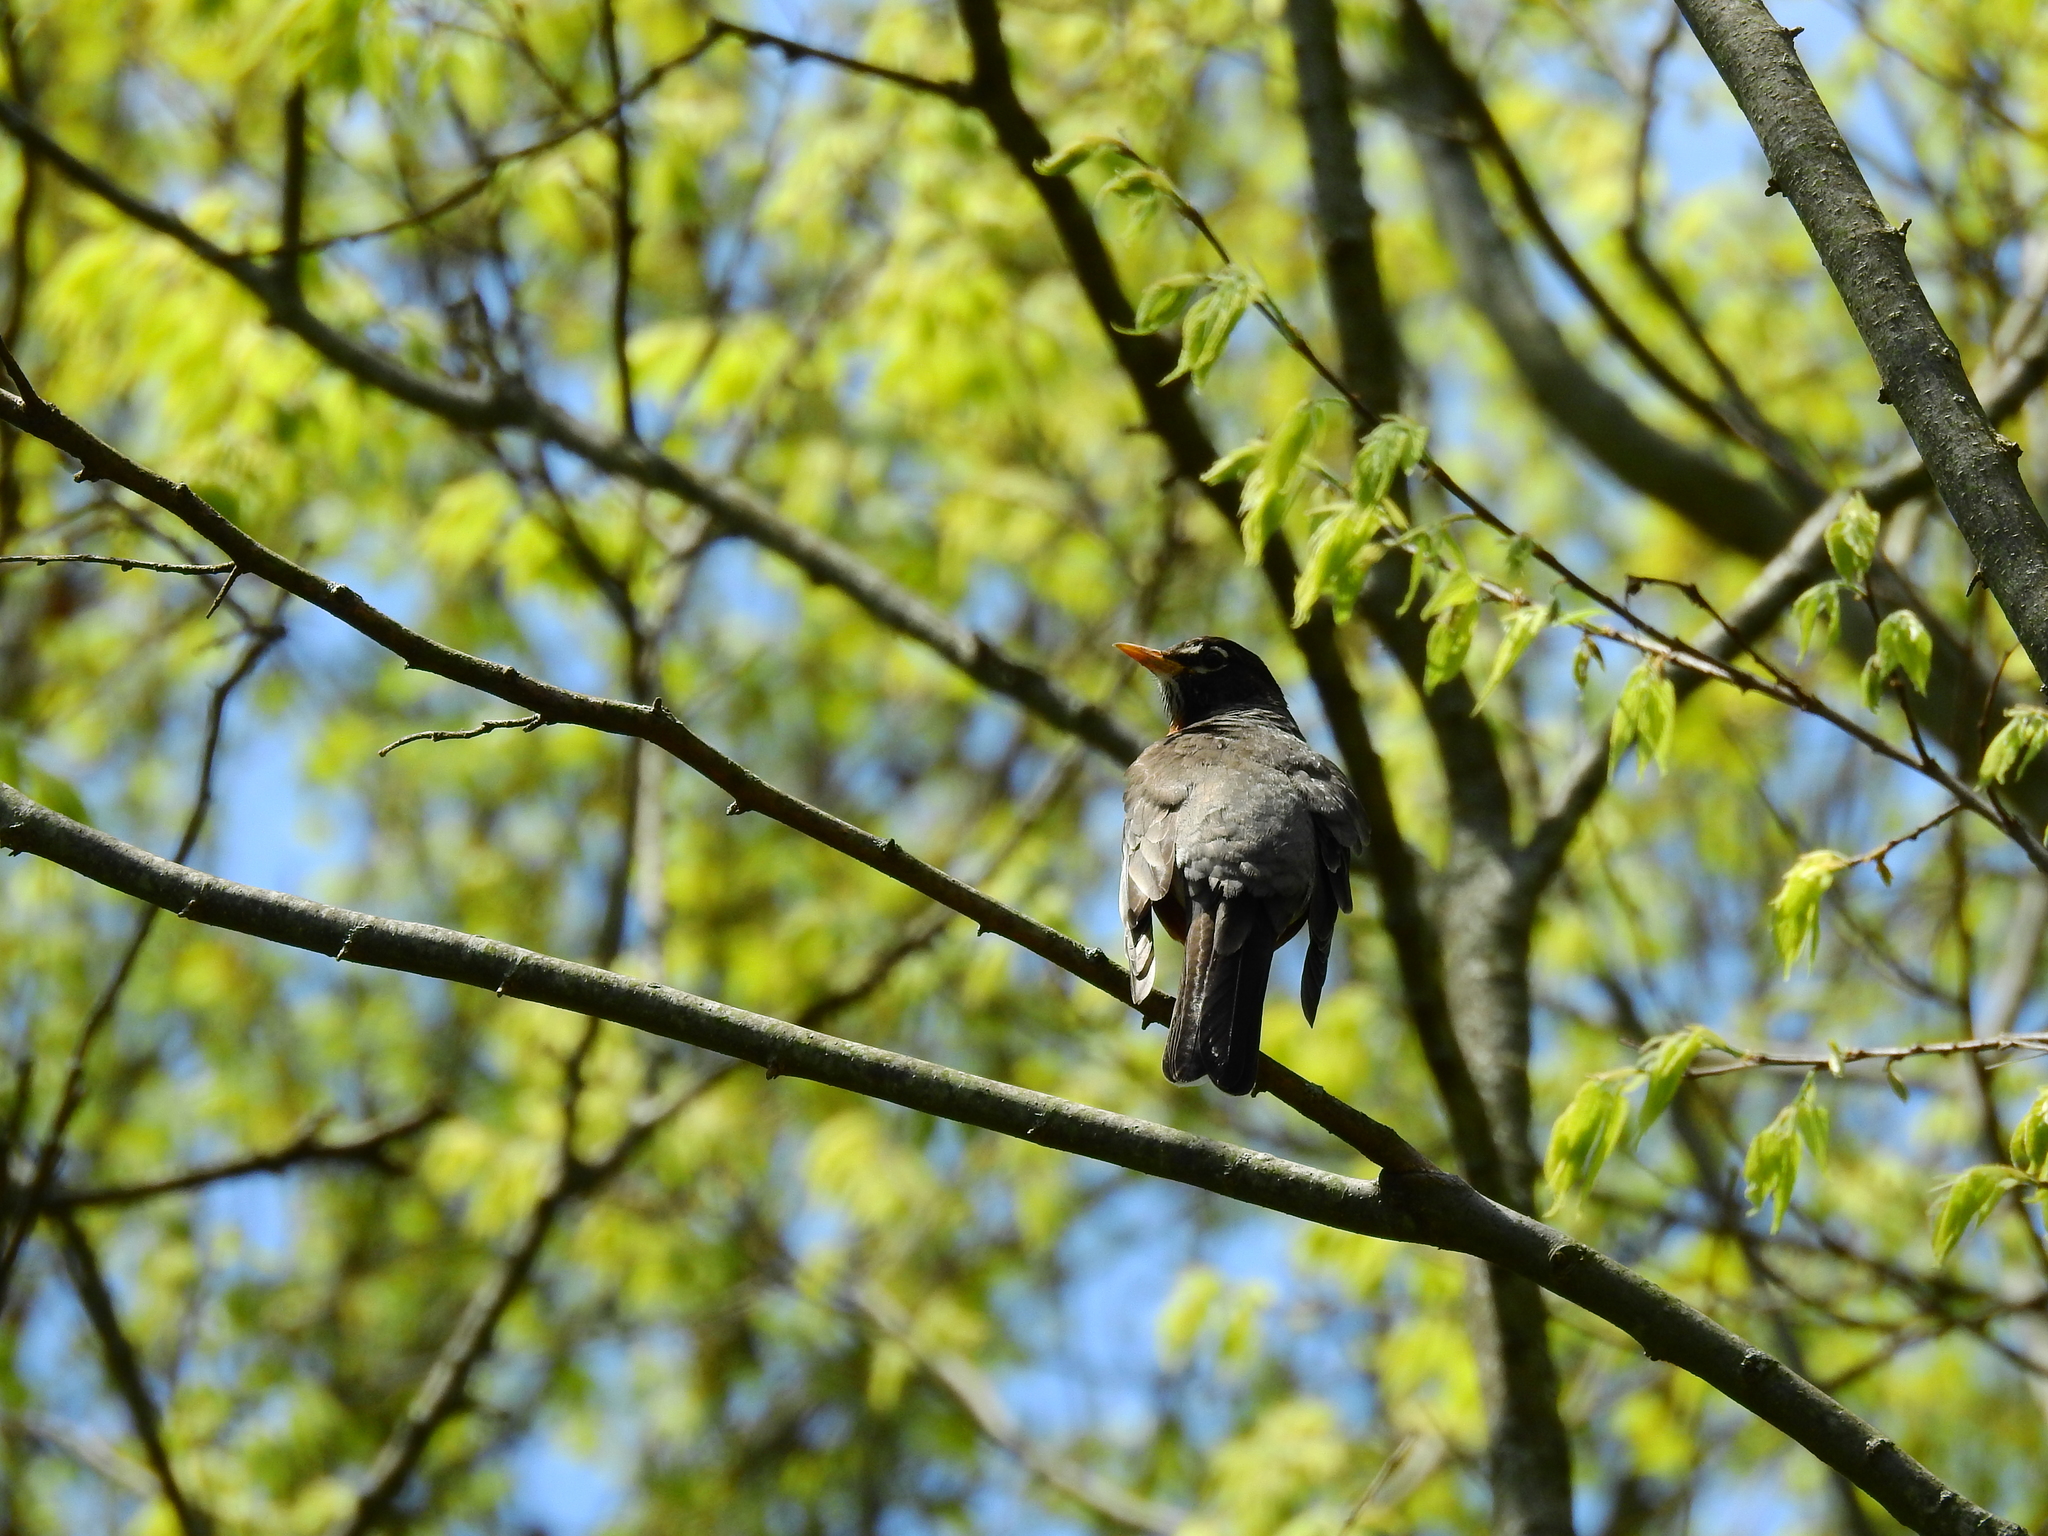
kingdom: Animalia
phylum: Chordata
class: Aves
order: Passeriformes
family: Turdidae
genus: Turdus
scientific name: Turdus migratorius
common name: American robin
